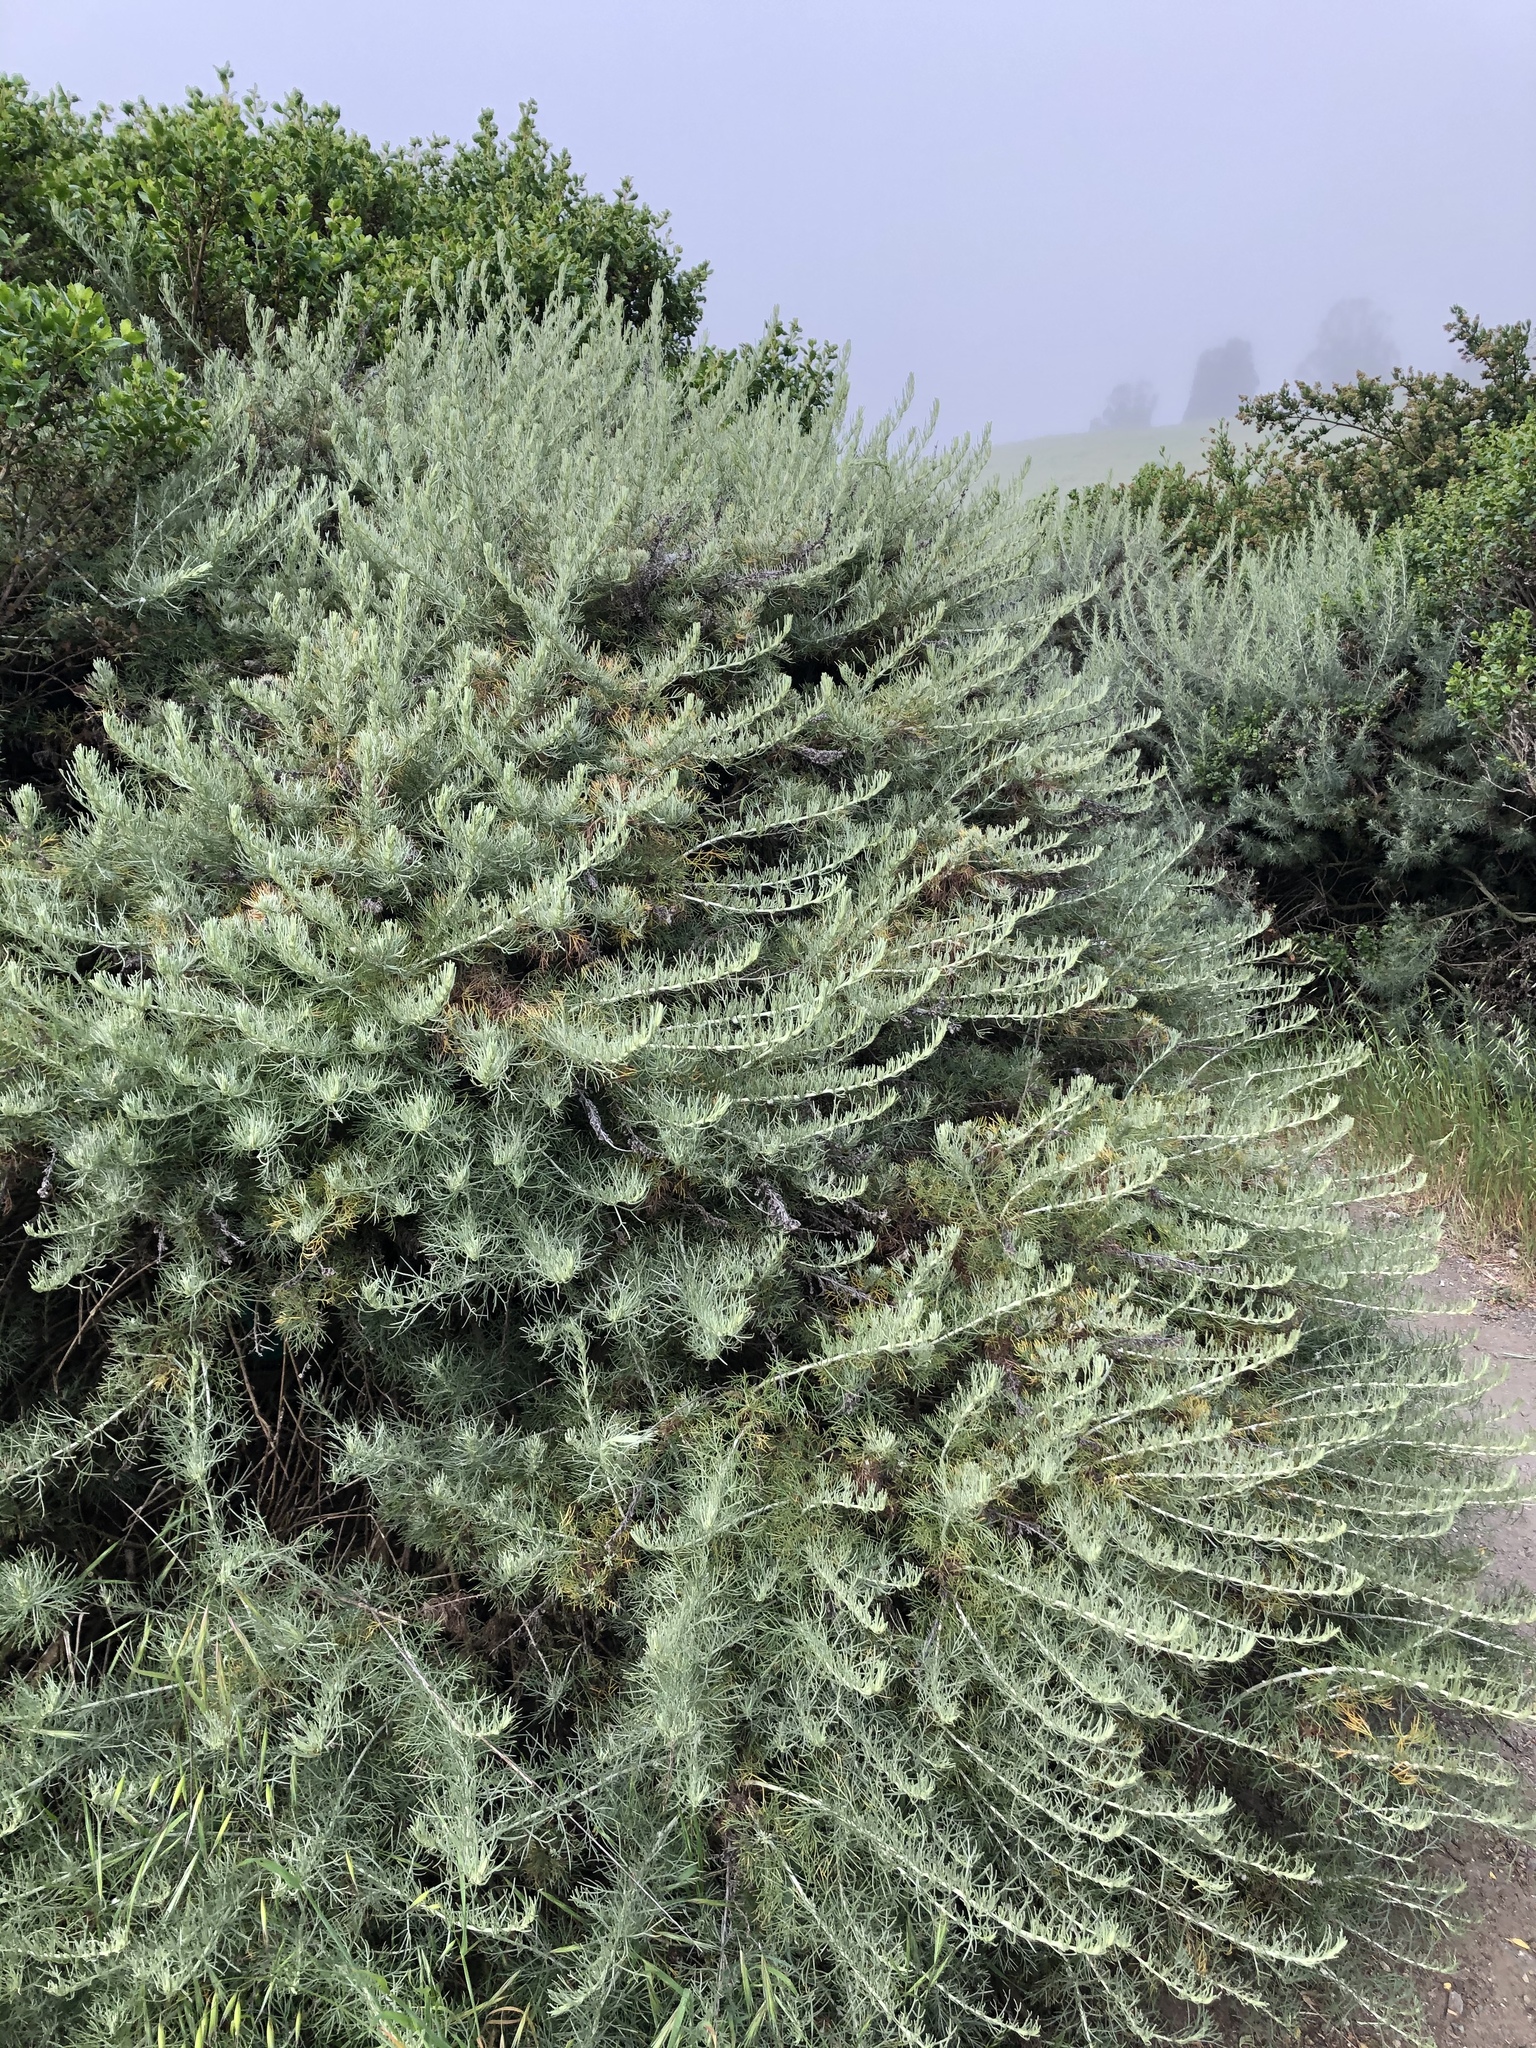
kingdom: Plantae
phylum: Tracheophyta
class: Magnoliopsida
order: Asterales
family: Asteraceae
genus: Artemisia
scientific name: Artemisia californica
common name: California sagebrush
